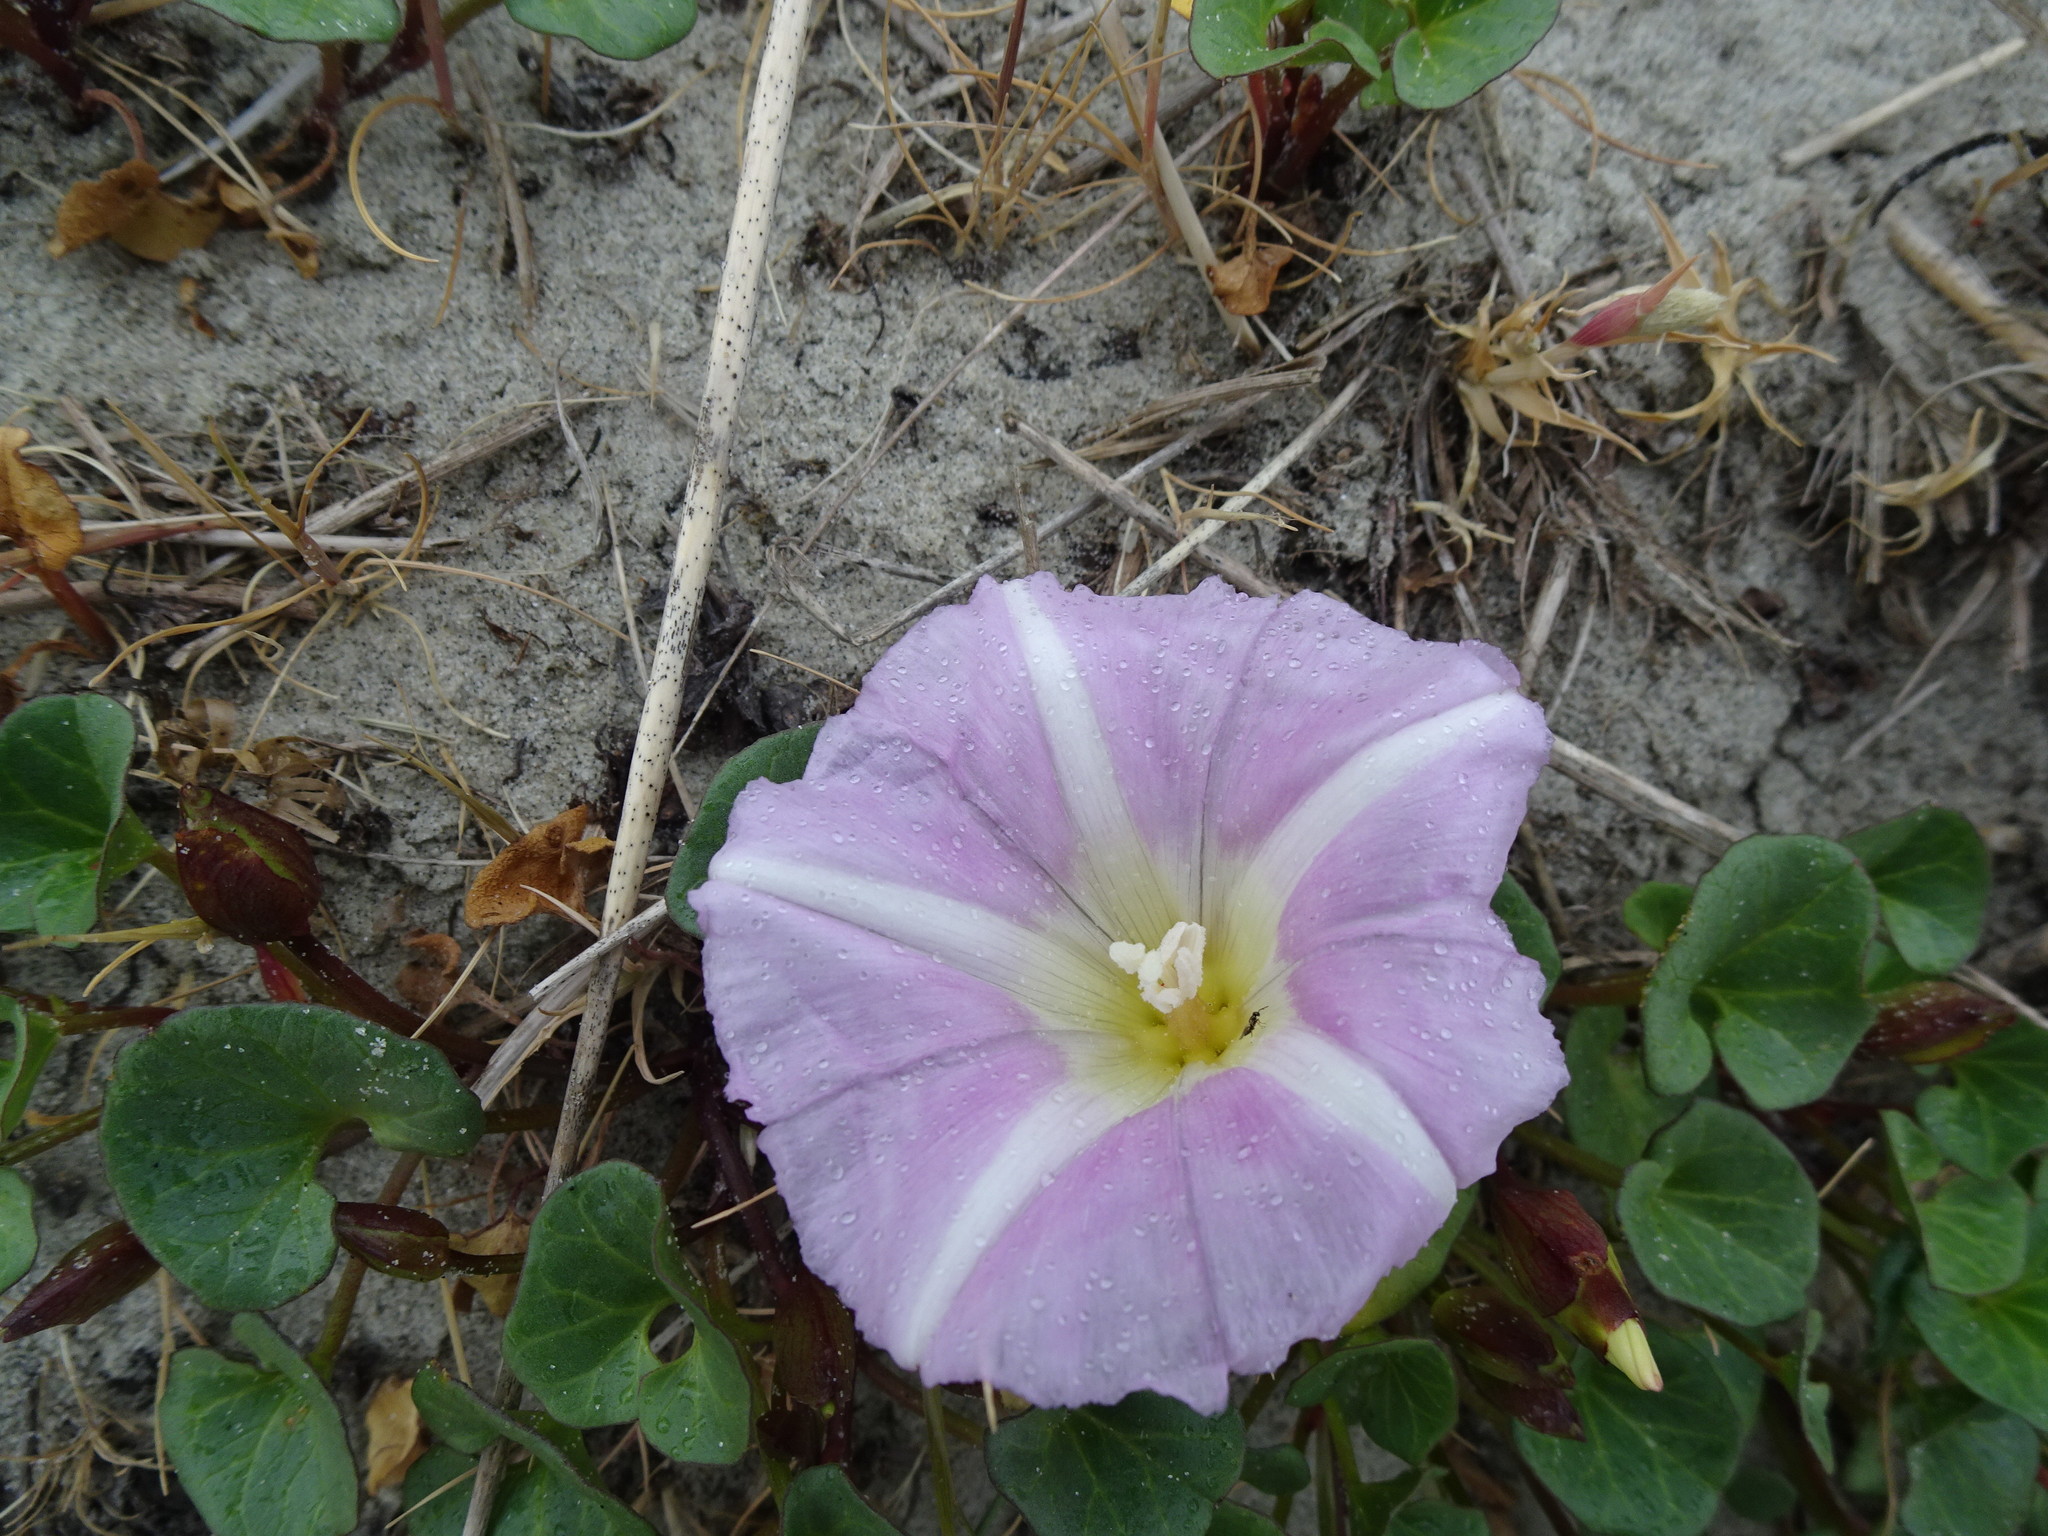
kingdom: Plantae
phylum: Tracheophyta
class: Magnoliopsida
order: Solanales
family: Convolvulaceae
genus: Calystegia
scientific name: Calystegia soldanella
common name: Sea bindweed
